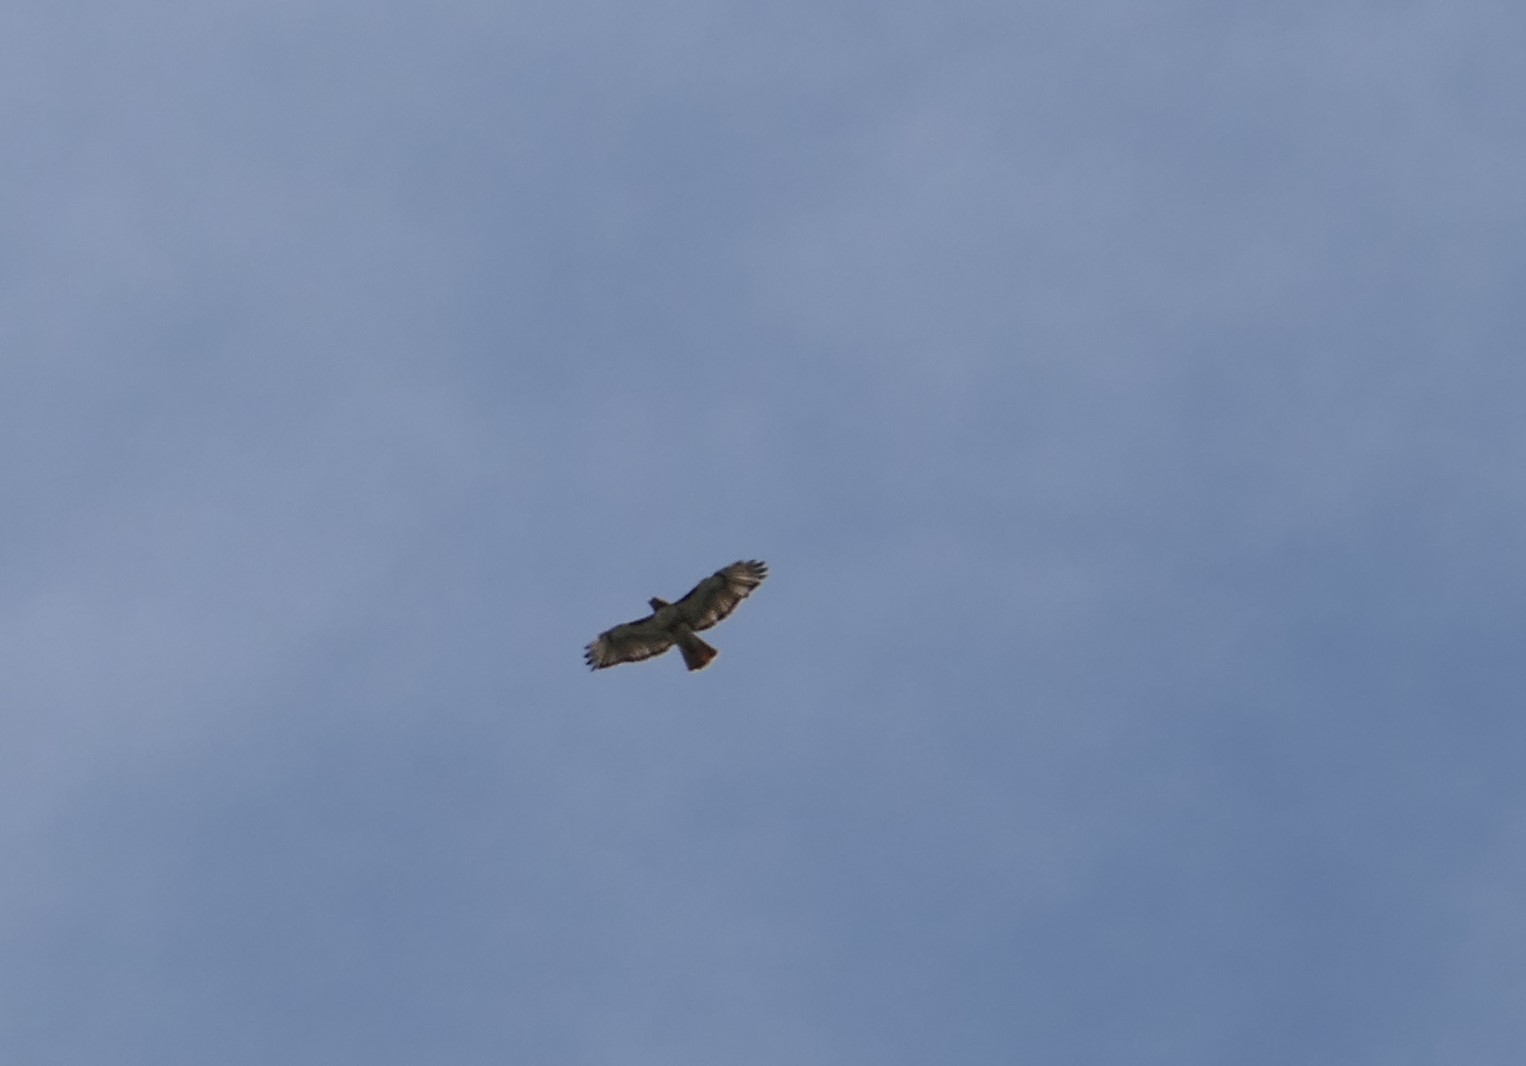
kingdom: Animalia
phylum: Chordata
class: Aves
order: Accipitriformes
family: Accipitridae
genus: Buteo
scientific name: Buteo jamaicensis
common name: Red-tailed hawk
